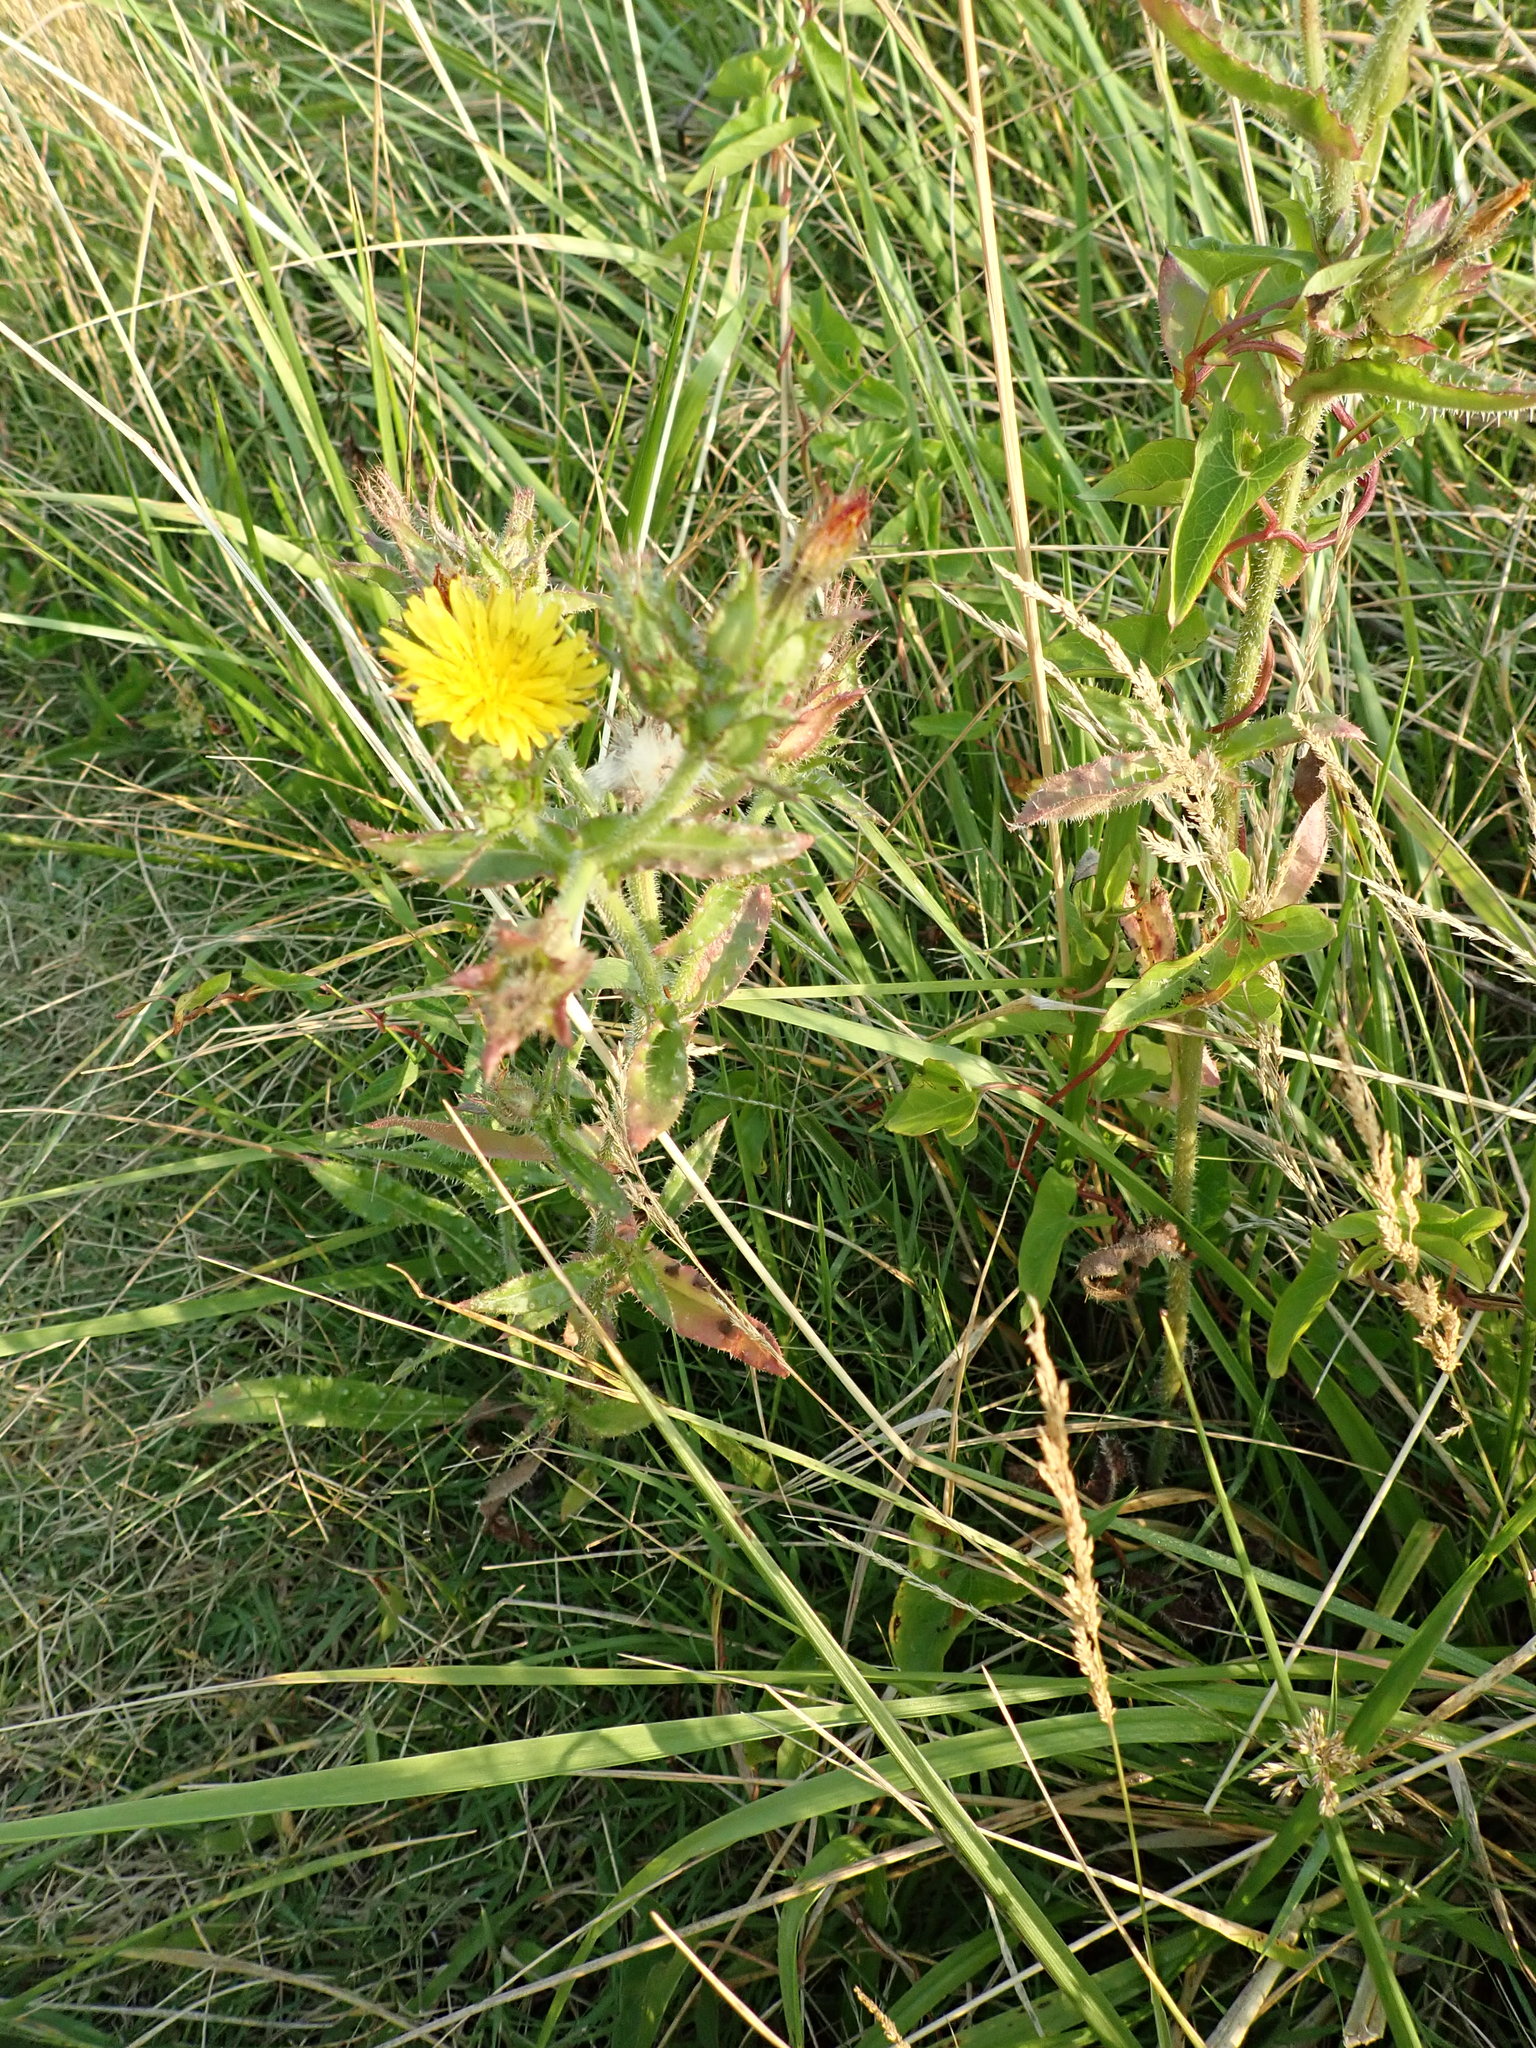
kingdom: Plantae
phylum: Tracheophyta
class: Magnoliopsida
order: Asterales
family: Asteraceae
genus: Helminthotheca
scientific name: Helminthotheca echioides
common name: Ox-tongue
